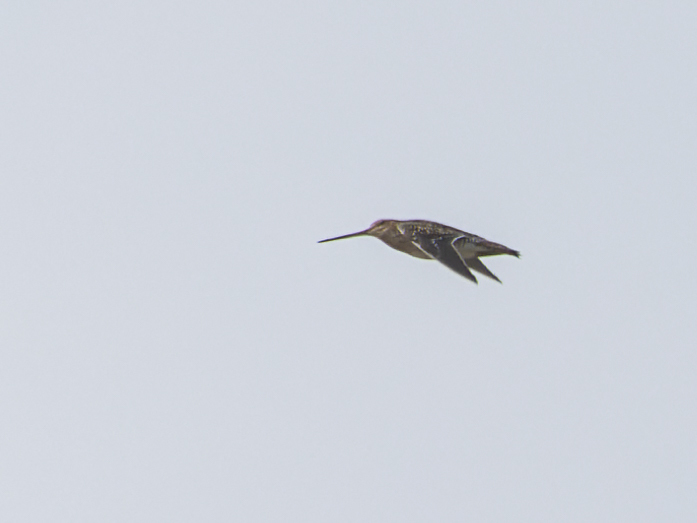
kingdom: Animalia
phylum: Chordata
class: Aves
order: Charadriiformes
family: Scolopacidae
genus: Gallinago
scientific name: Gallinago gallinago
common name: Common snipe
